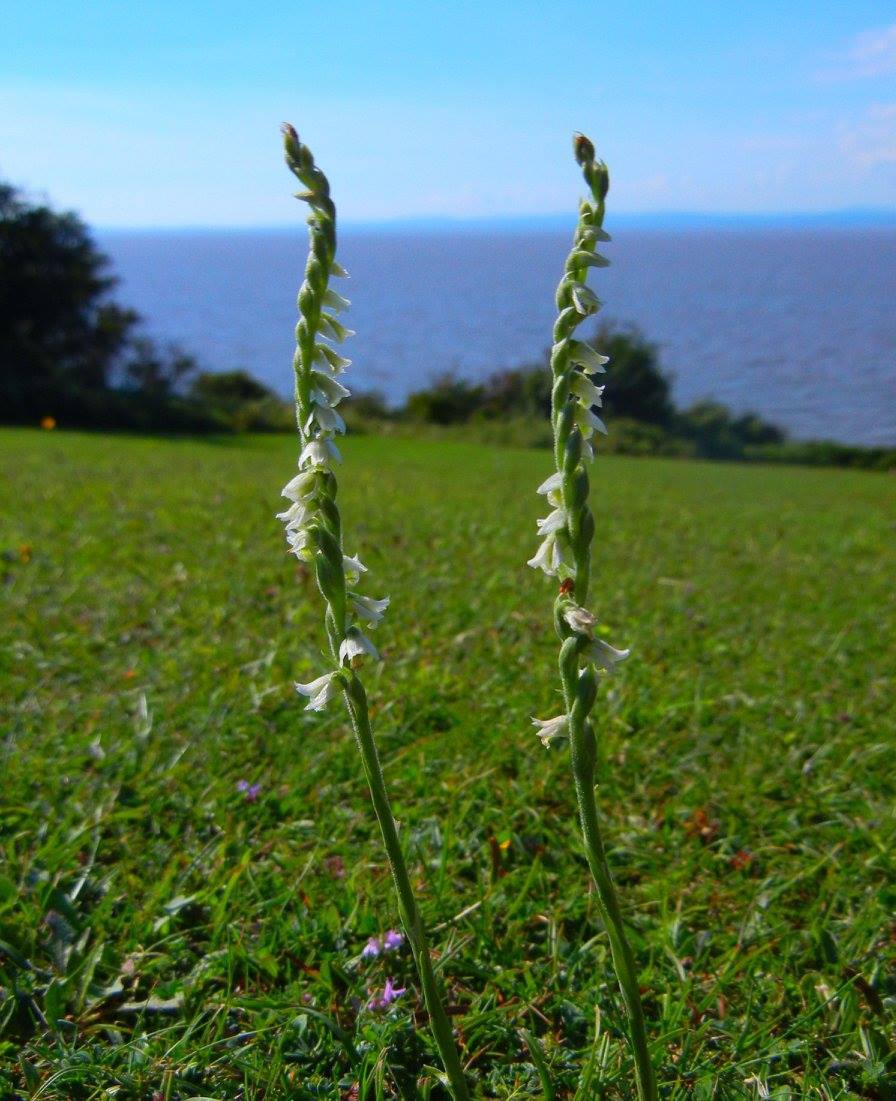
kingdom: Plantae
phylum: Tracheophyta
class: Liliopsida
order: Asparagales
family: Orchidaceae
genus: Spiranthes
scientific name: Spiranthes spiralis
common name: Autumn lady's-tresses
